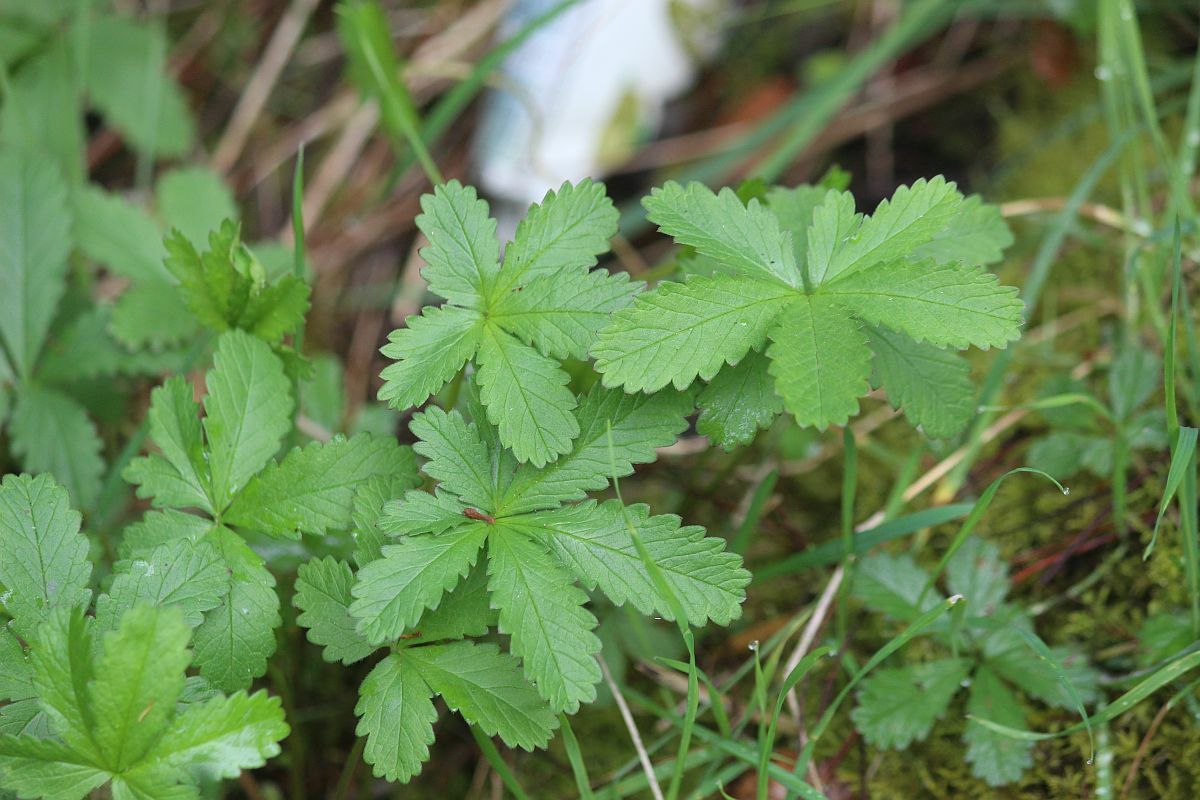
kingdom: Plantae
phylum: Tracheophyta
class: Magnoliopsida
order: Rosales
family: Rosaceae
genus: Potentilla
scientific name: Potentilla reptans
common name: Creeping cinquefoil
